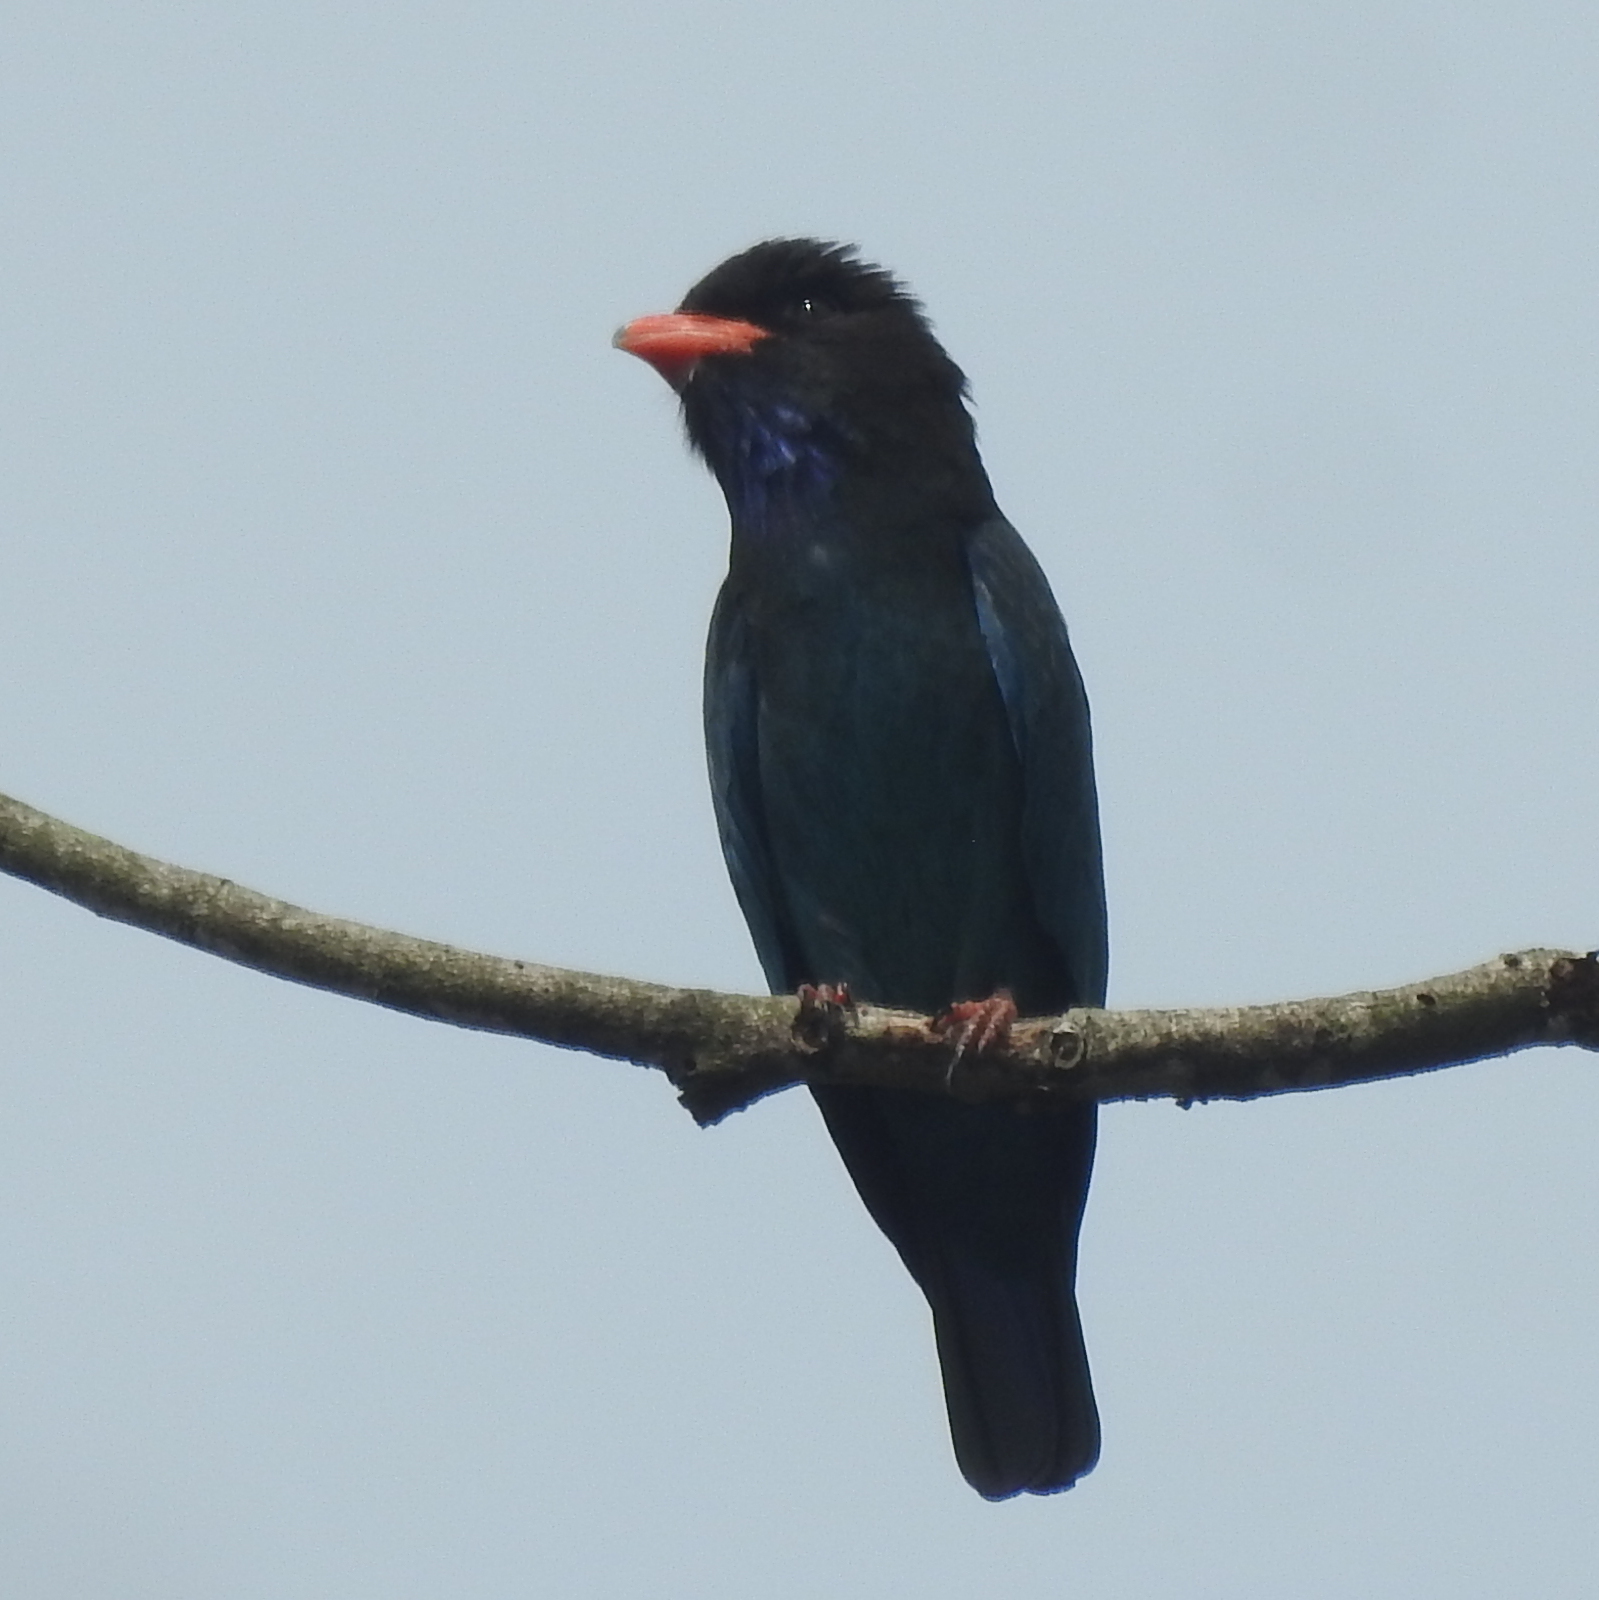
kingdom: Animalia
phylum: Chordata
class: Aves
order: Coraciiformes
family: Coraciidae
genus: Eurystomus
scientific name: Eurystomus orientalis
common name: Oriental dollarbird
